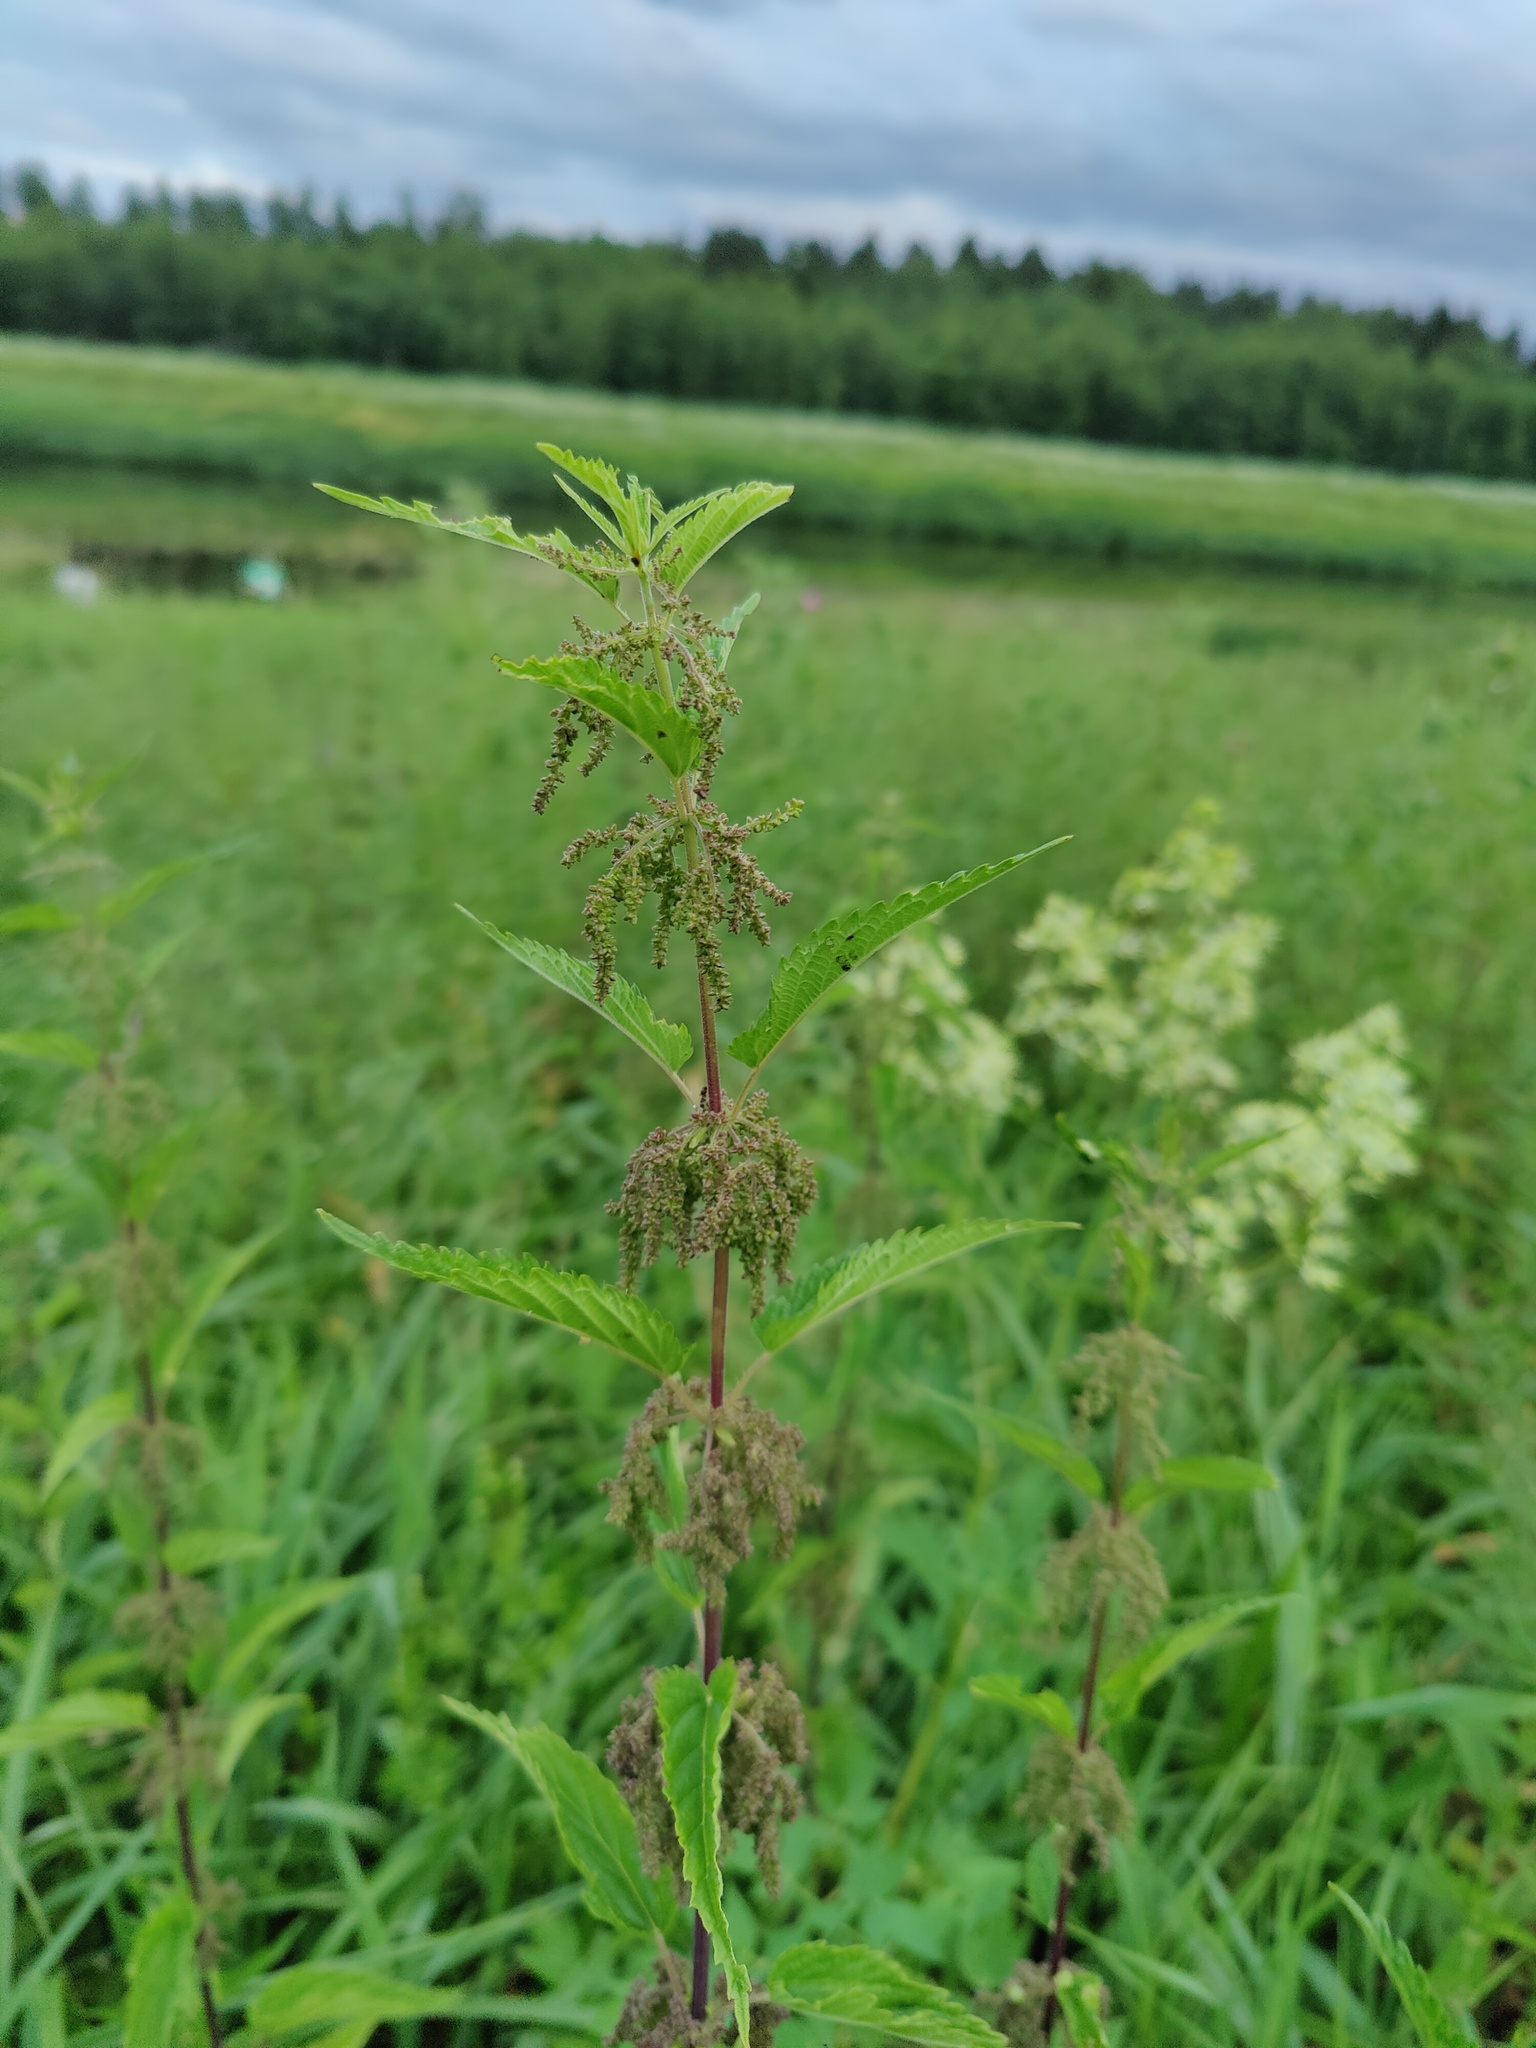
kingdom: Plantae
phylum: Tracheophyta
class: Magnoliopsida
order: Rosales
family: Urticaceae
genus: Urtica
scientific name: Urtica dioica
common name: Common nettle
